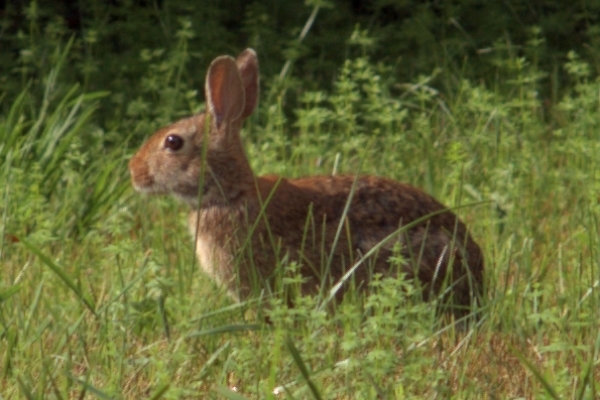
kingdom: Animalia
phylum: Chordata
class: Mammalia
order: Lagomorpha
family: Leporidae
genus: Sylvilagus
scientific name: Sylvilagus floridanus
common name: Eastern cottontail
